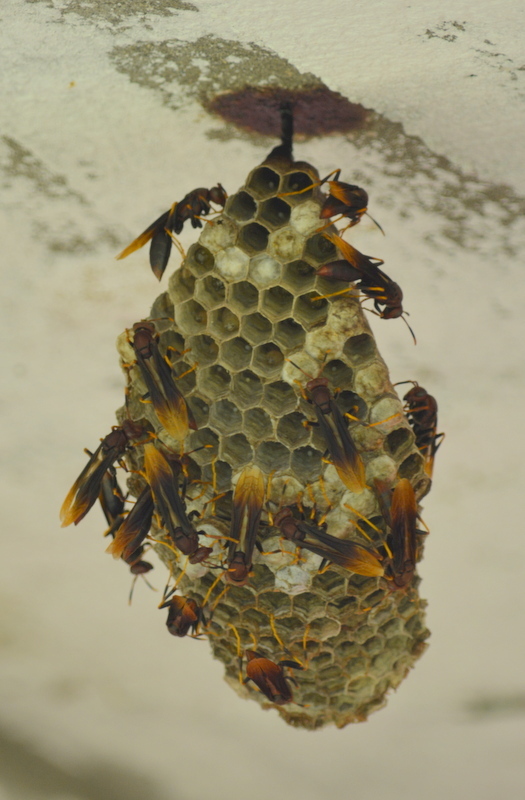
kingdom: Animalia
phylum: Arthropoda
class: Insecta
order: Hymenoptera
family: Eumenidae
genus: Polistes
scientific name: Polistes lanio
